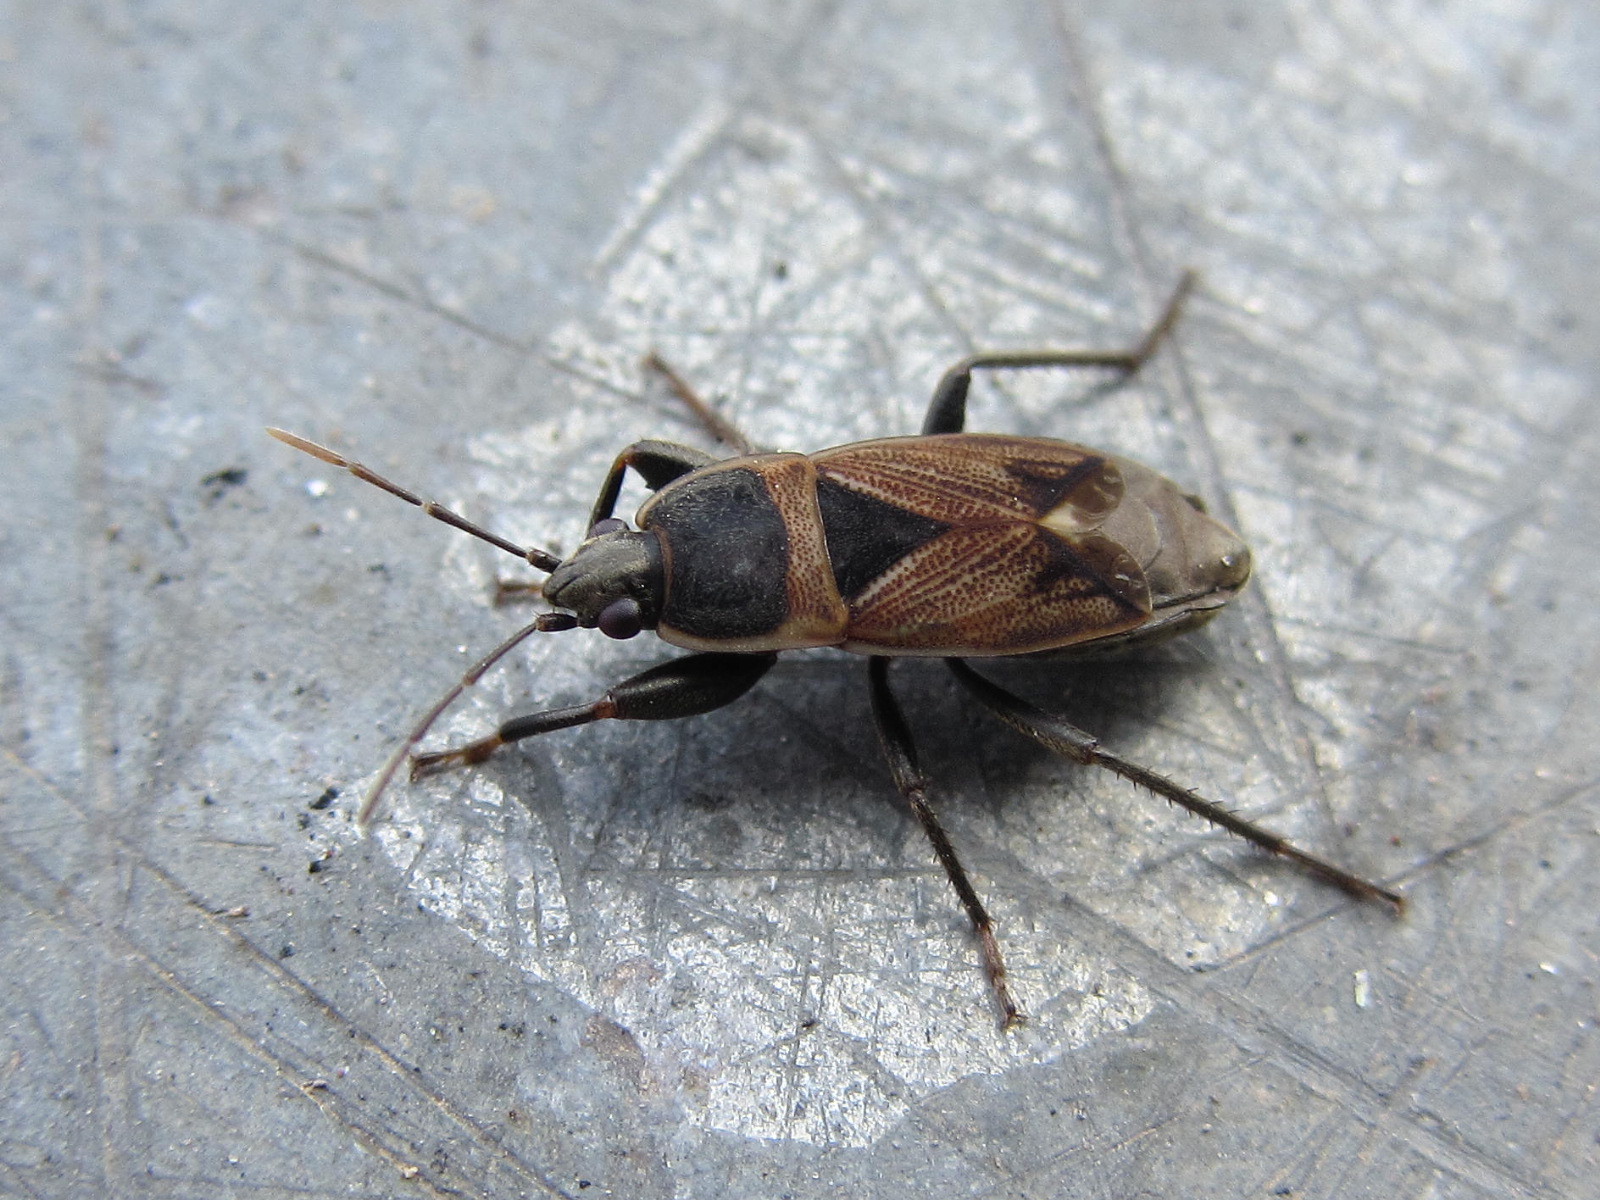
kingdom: Animalia
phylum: Arthropoda
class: Insecta
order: Hemiptera
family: Rhyparochromidae
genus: Bleteogonus
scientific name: Bleteogonus beckeri
